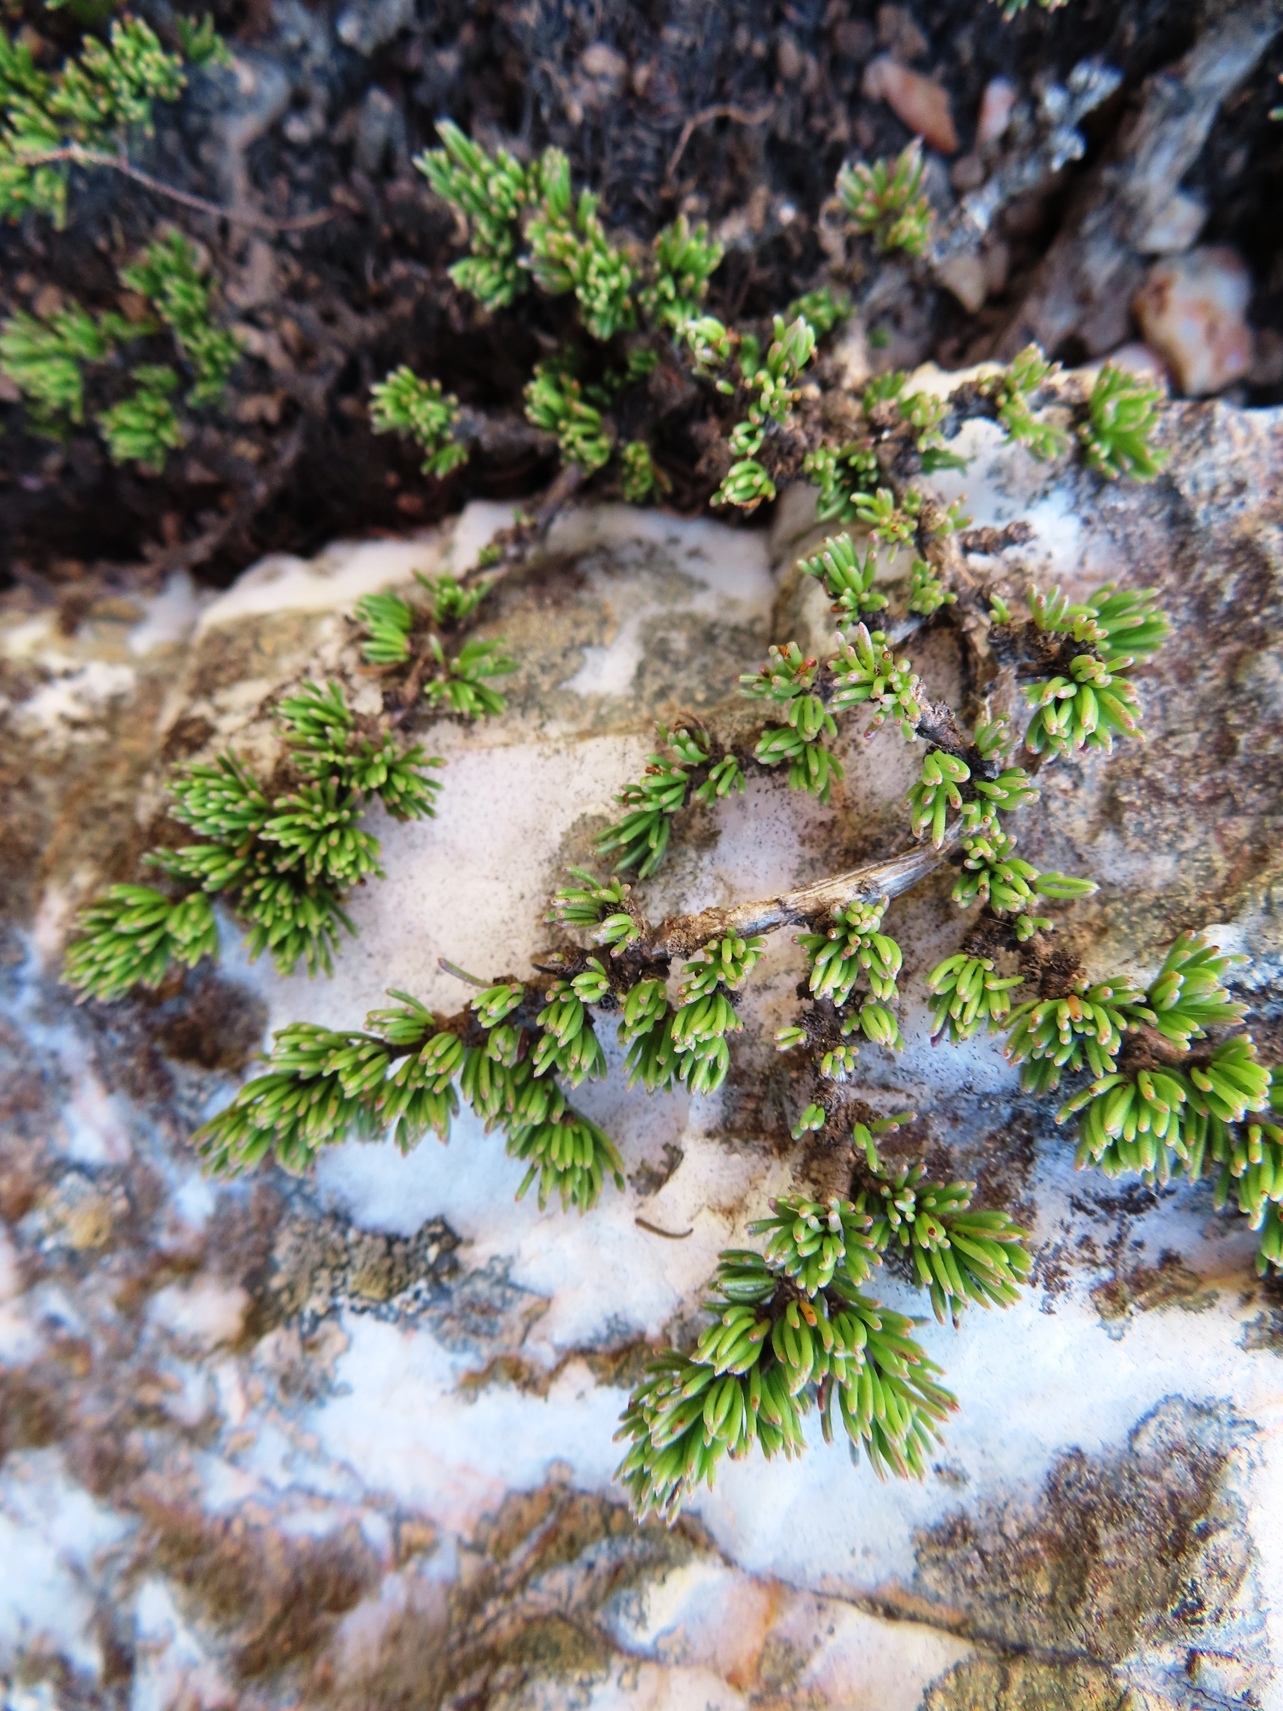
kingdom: Plantae
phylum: Tracheophyta
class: Magnoliopsida
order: Fabales
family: Fabaceae
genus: Aspalathus
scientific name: Aspalathus quartzicola
